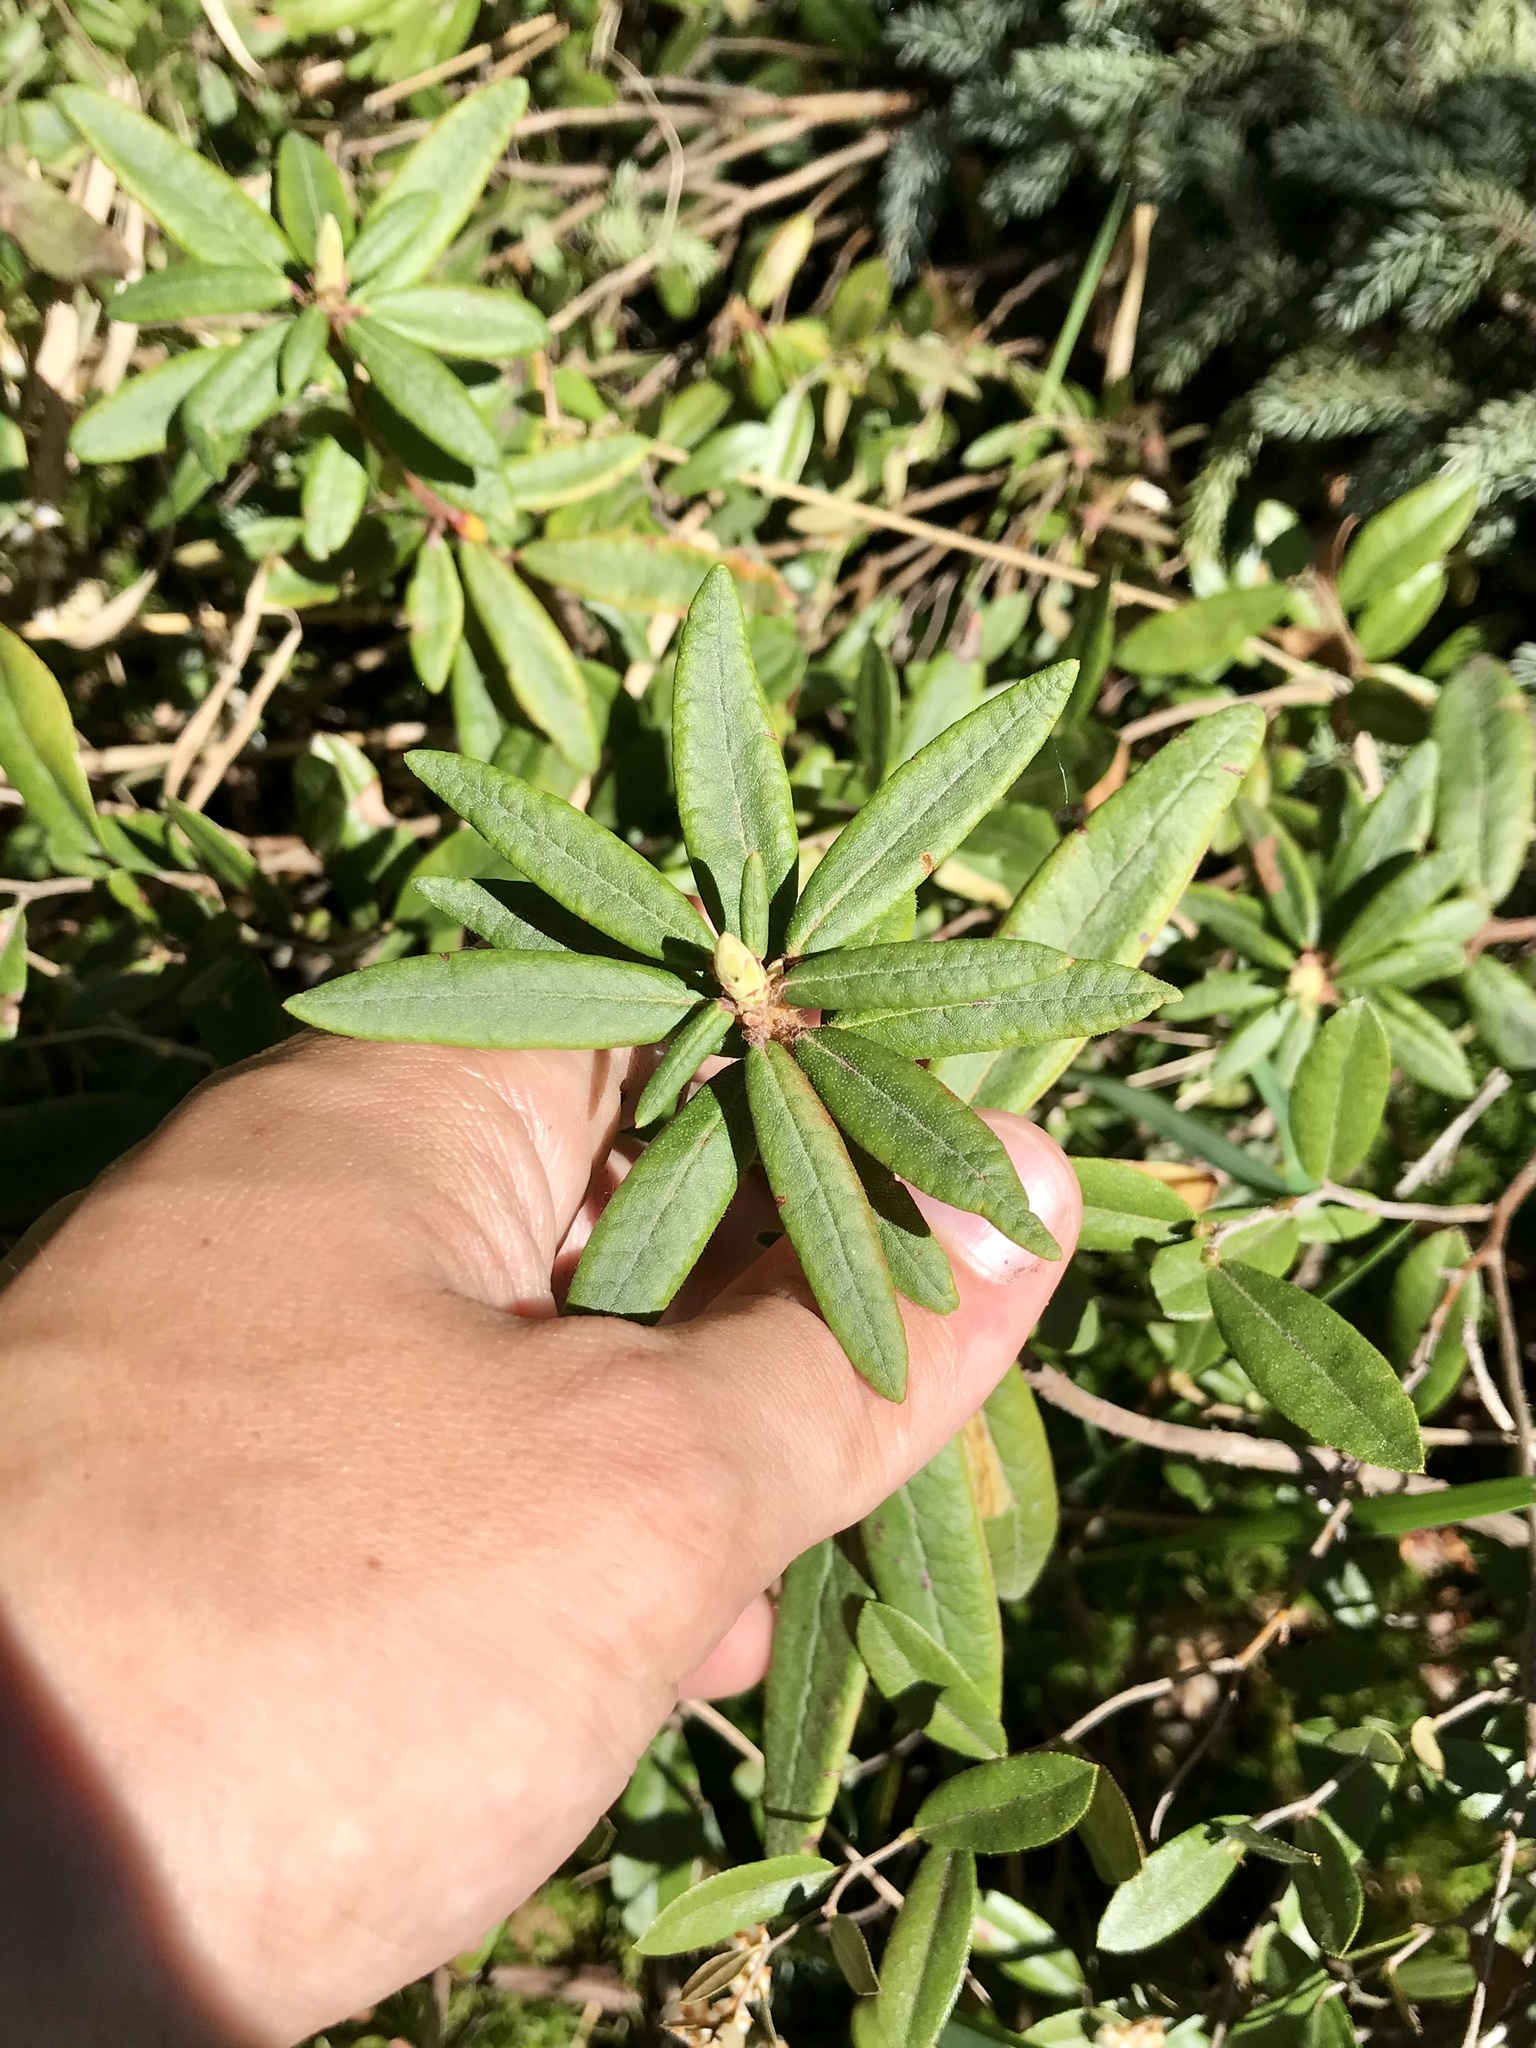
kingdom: Plantae
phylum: Tracheophyta
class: Magnoliopsida
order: Ericales
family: Ericaceae
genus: Rhododendron
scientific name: Rhododendron groenlandicum
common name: Bog labrador tea
